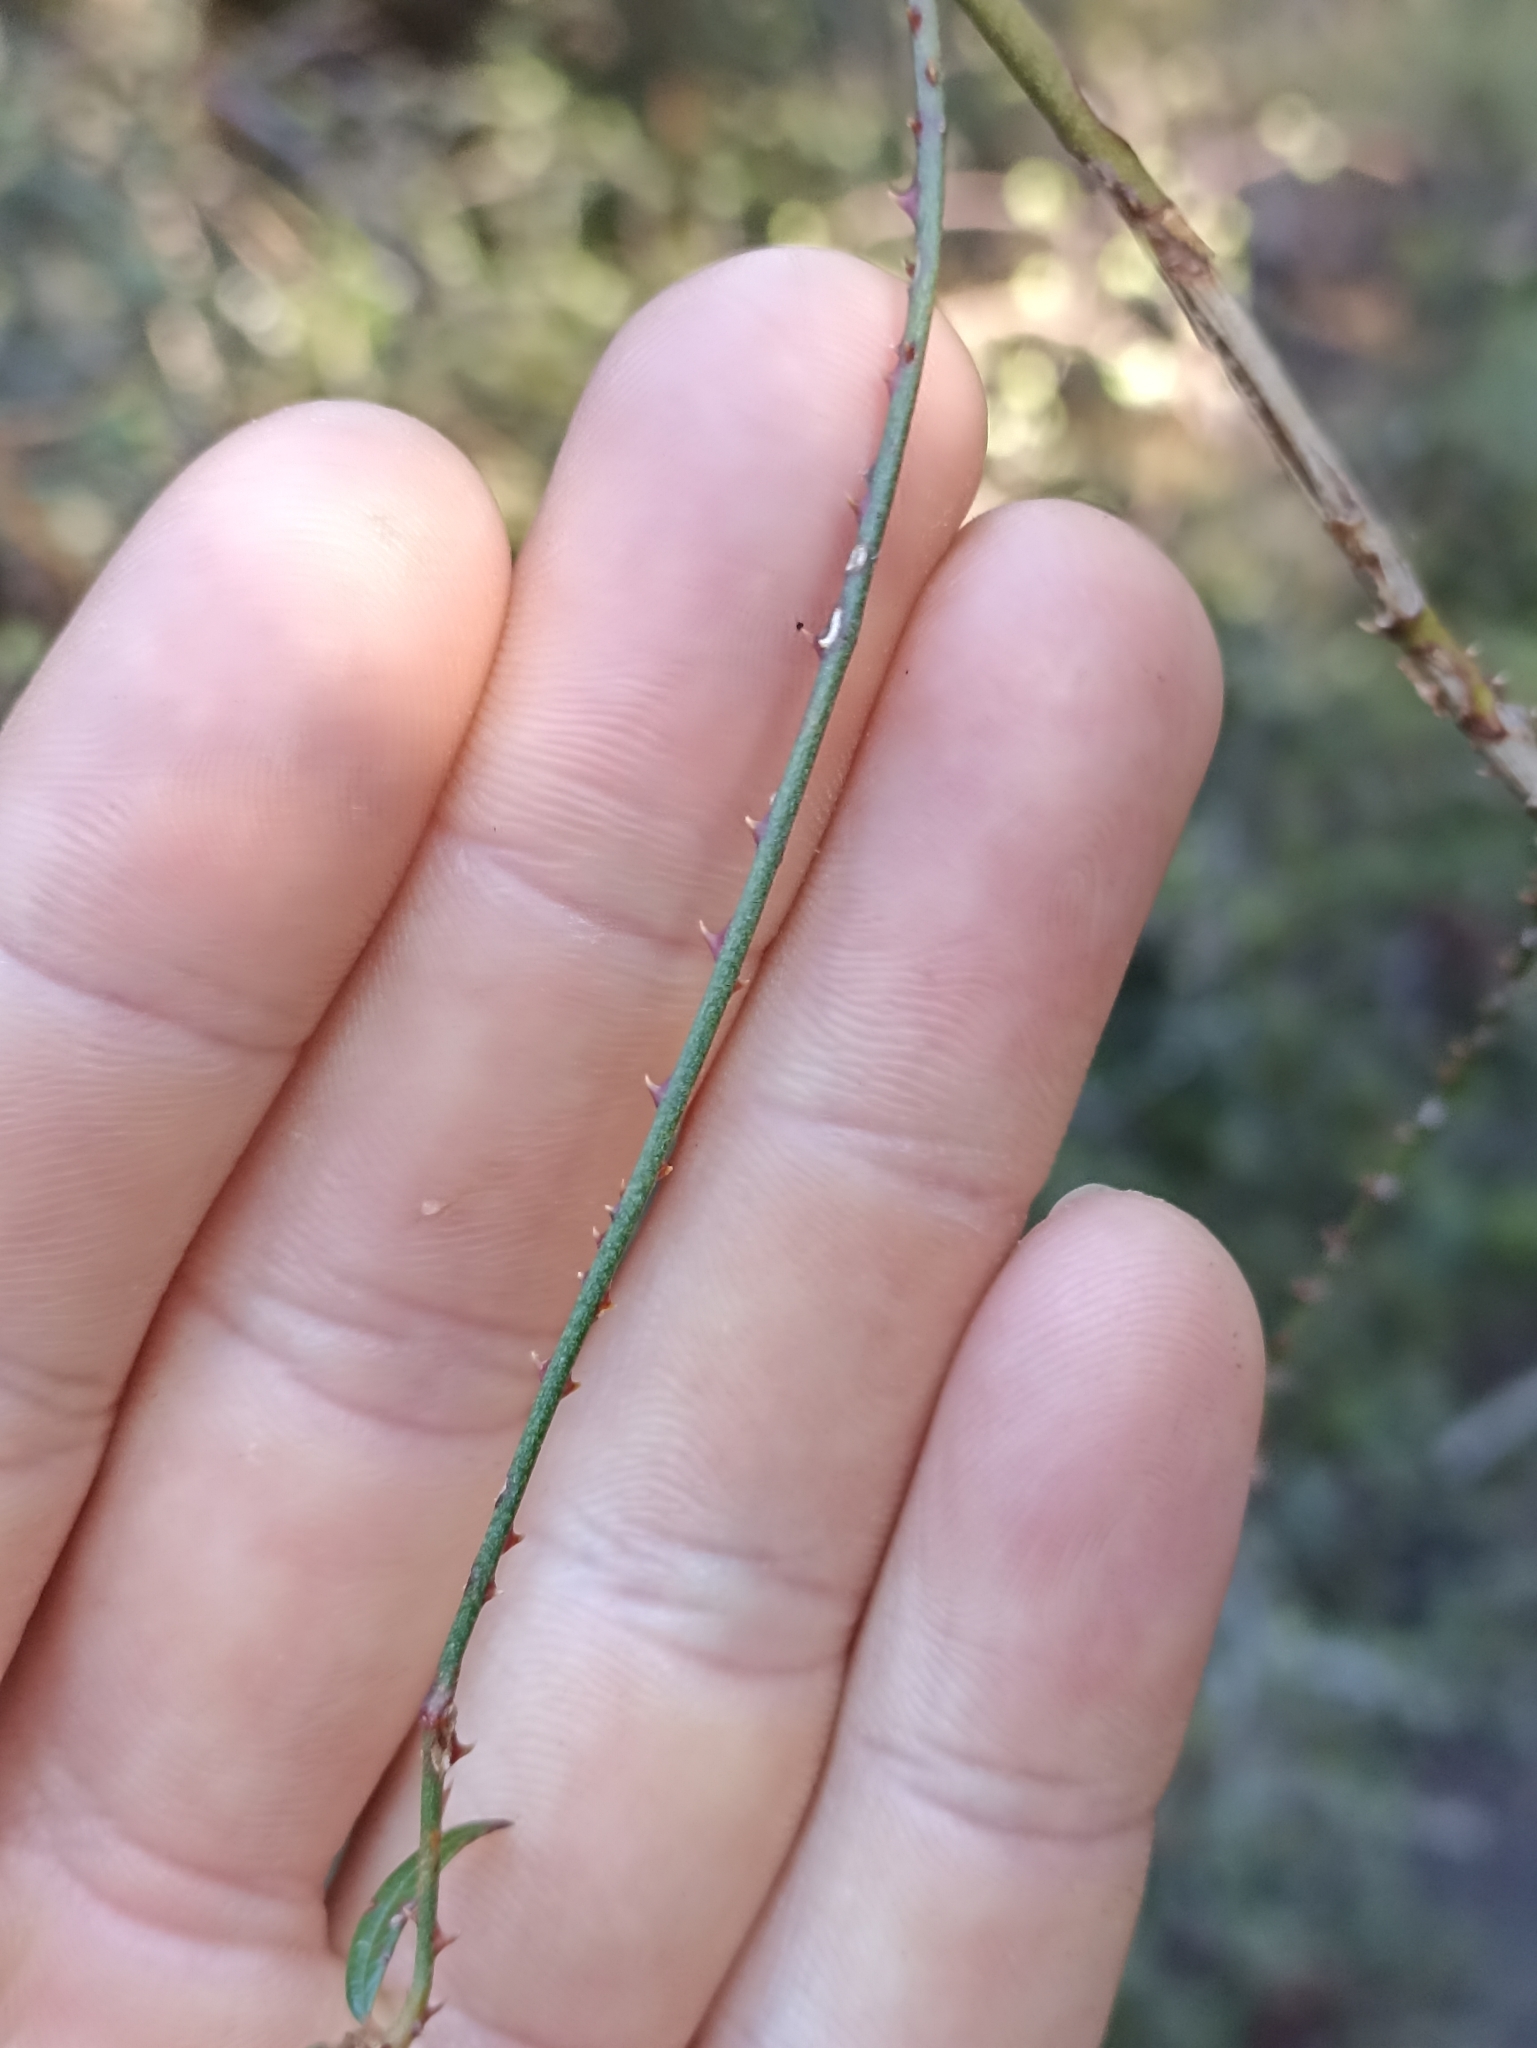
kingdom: Plantae
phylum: Tracheophyta
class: Magnoliopsida
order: Rosales
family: Rosaceae
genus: Rubus
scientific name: Rubus schmidelioides
